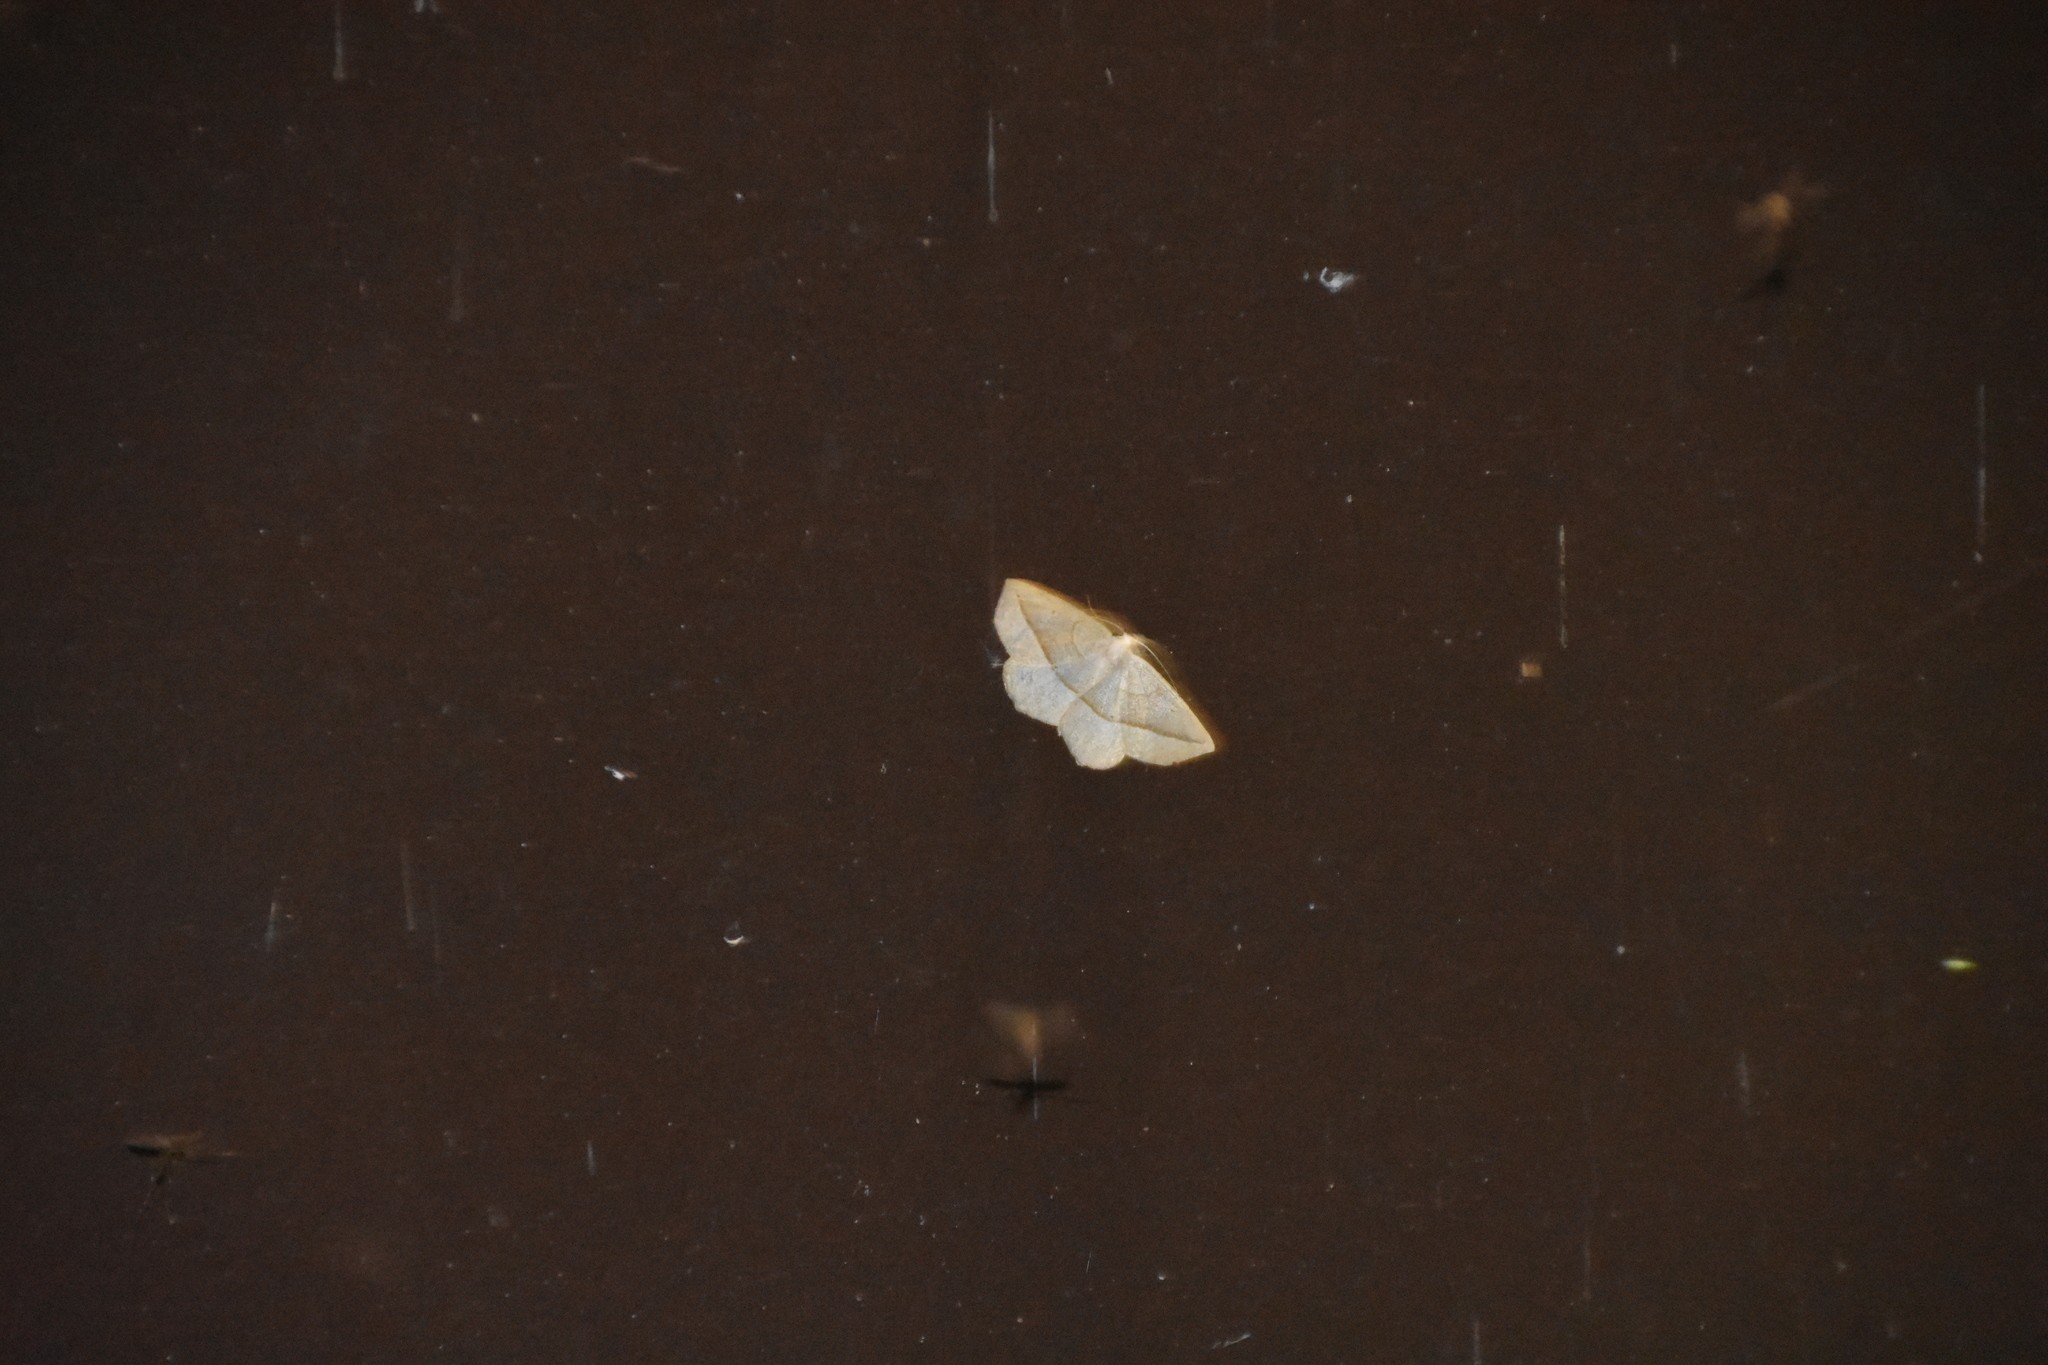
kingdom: Animalia
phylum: Arthropoda
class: Insecta
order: Lepidoptera
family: Geometridae
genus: Eusarca
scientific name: Eusarca confusaria
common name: Confused eusarca
